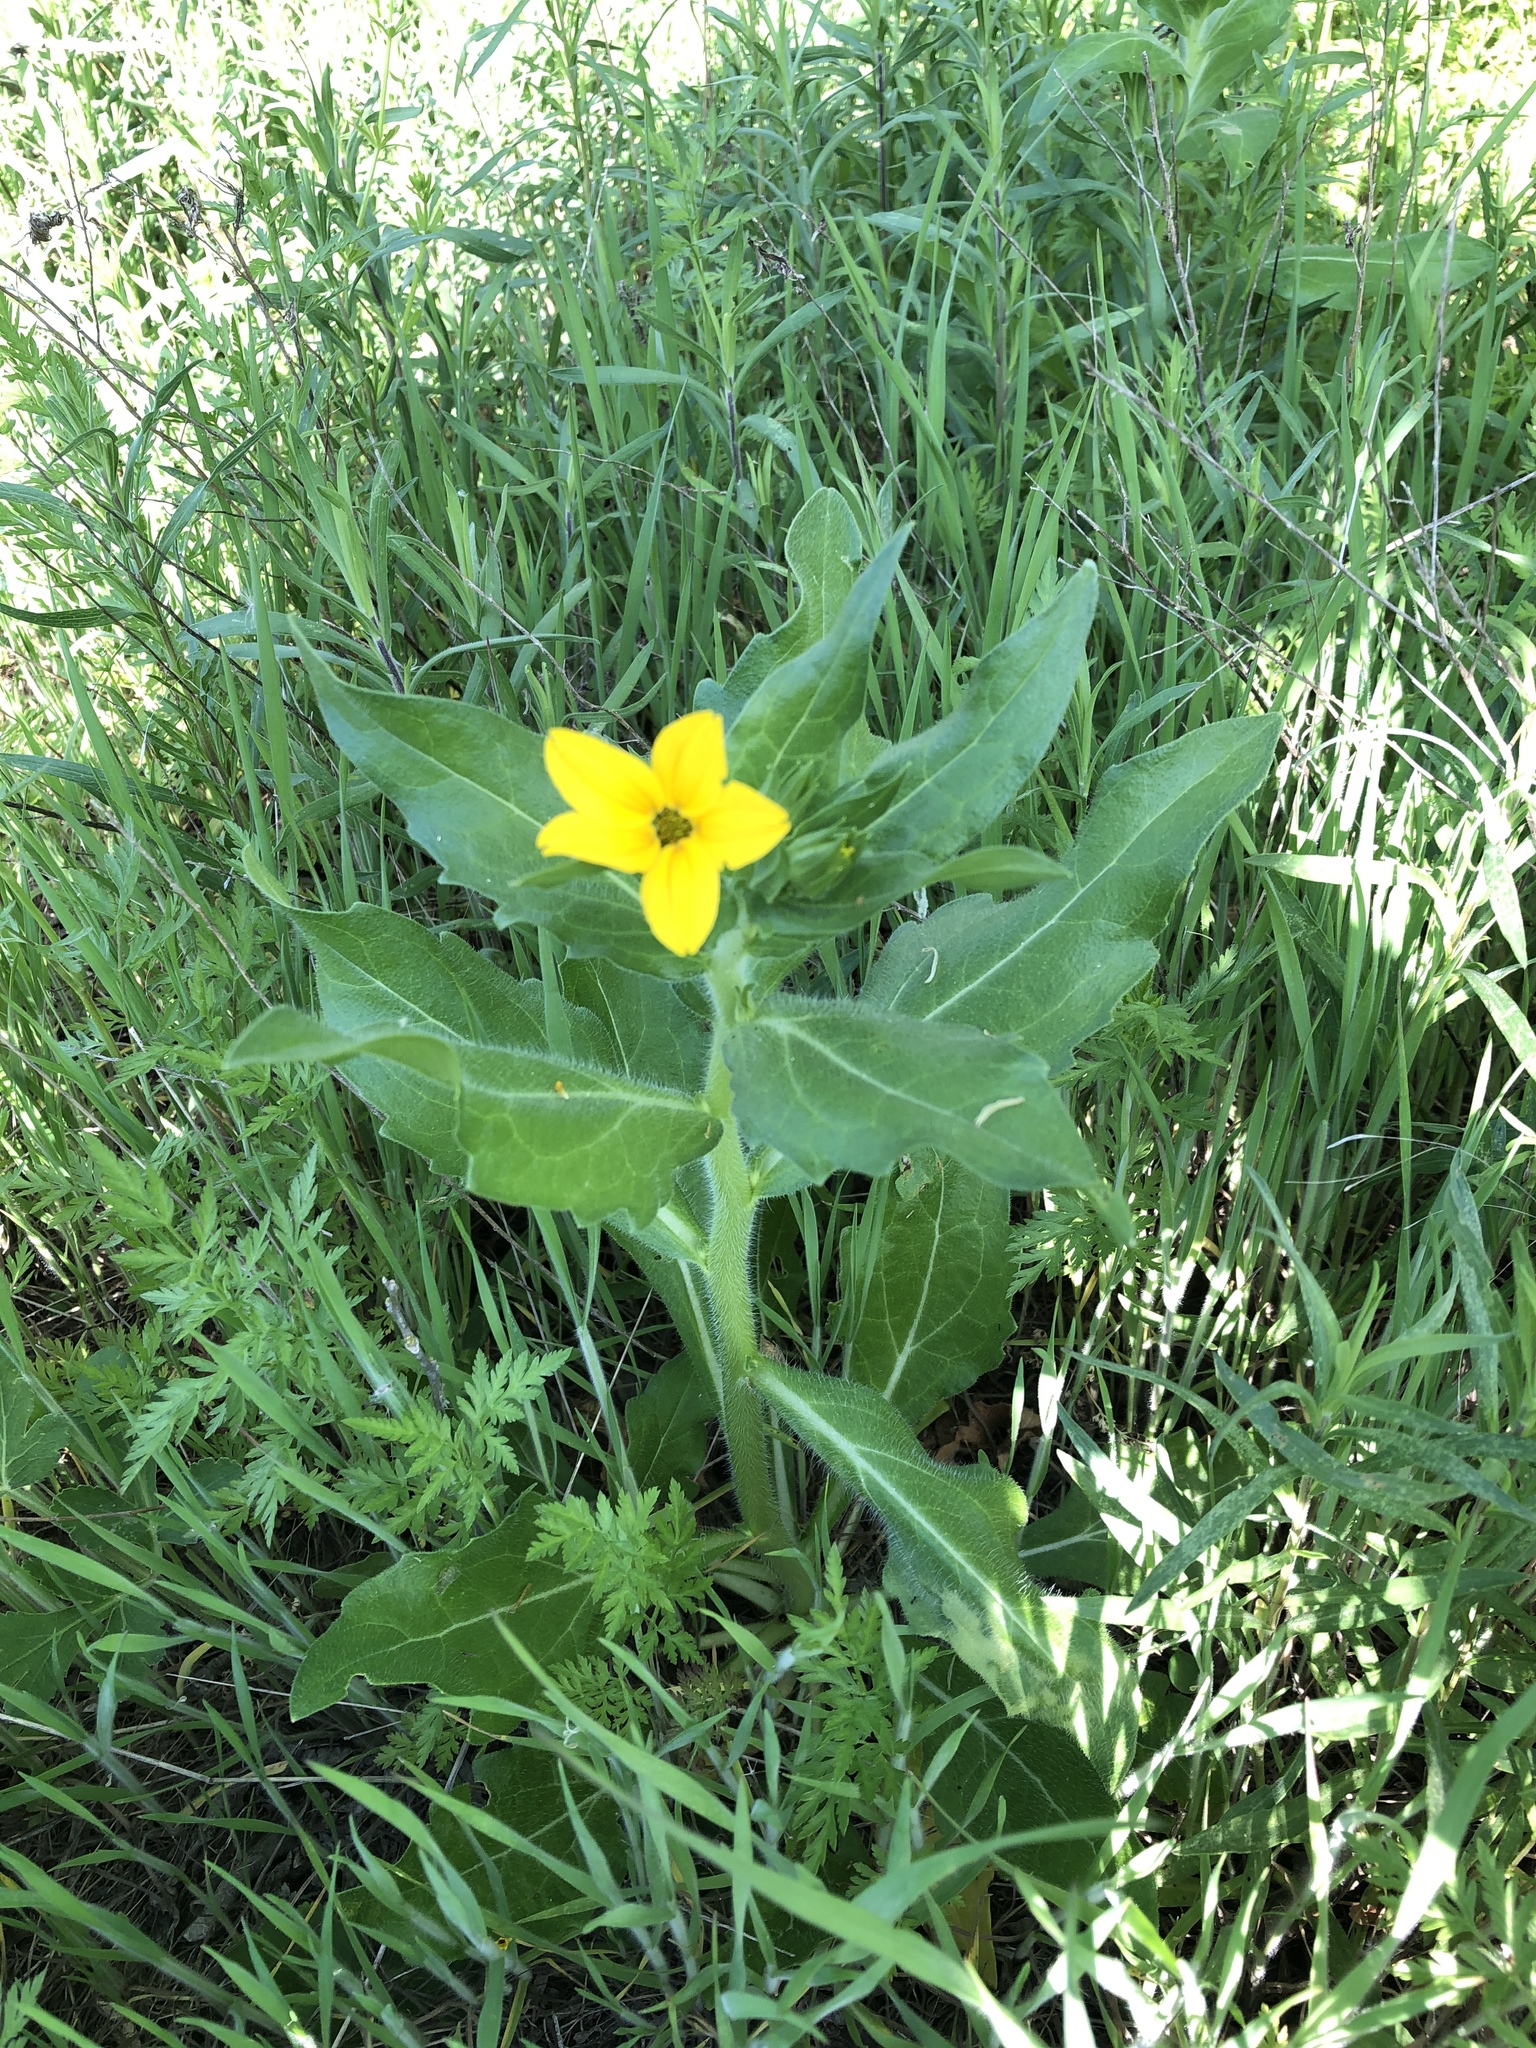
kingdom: Plantae
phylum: Tracheophyta
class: Magnoliopsida
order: Asterales
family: Asteraceae
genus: Lindheimera
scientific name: Lindheimera texana
